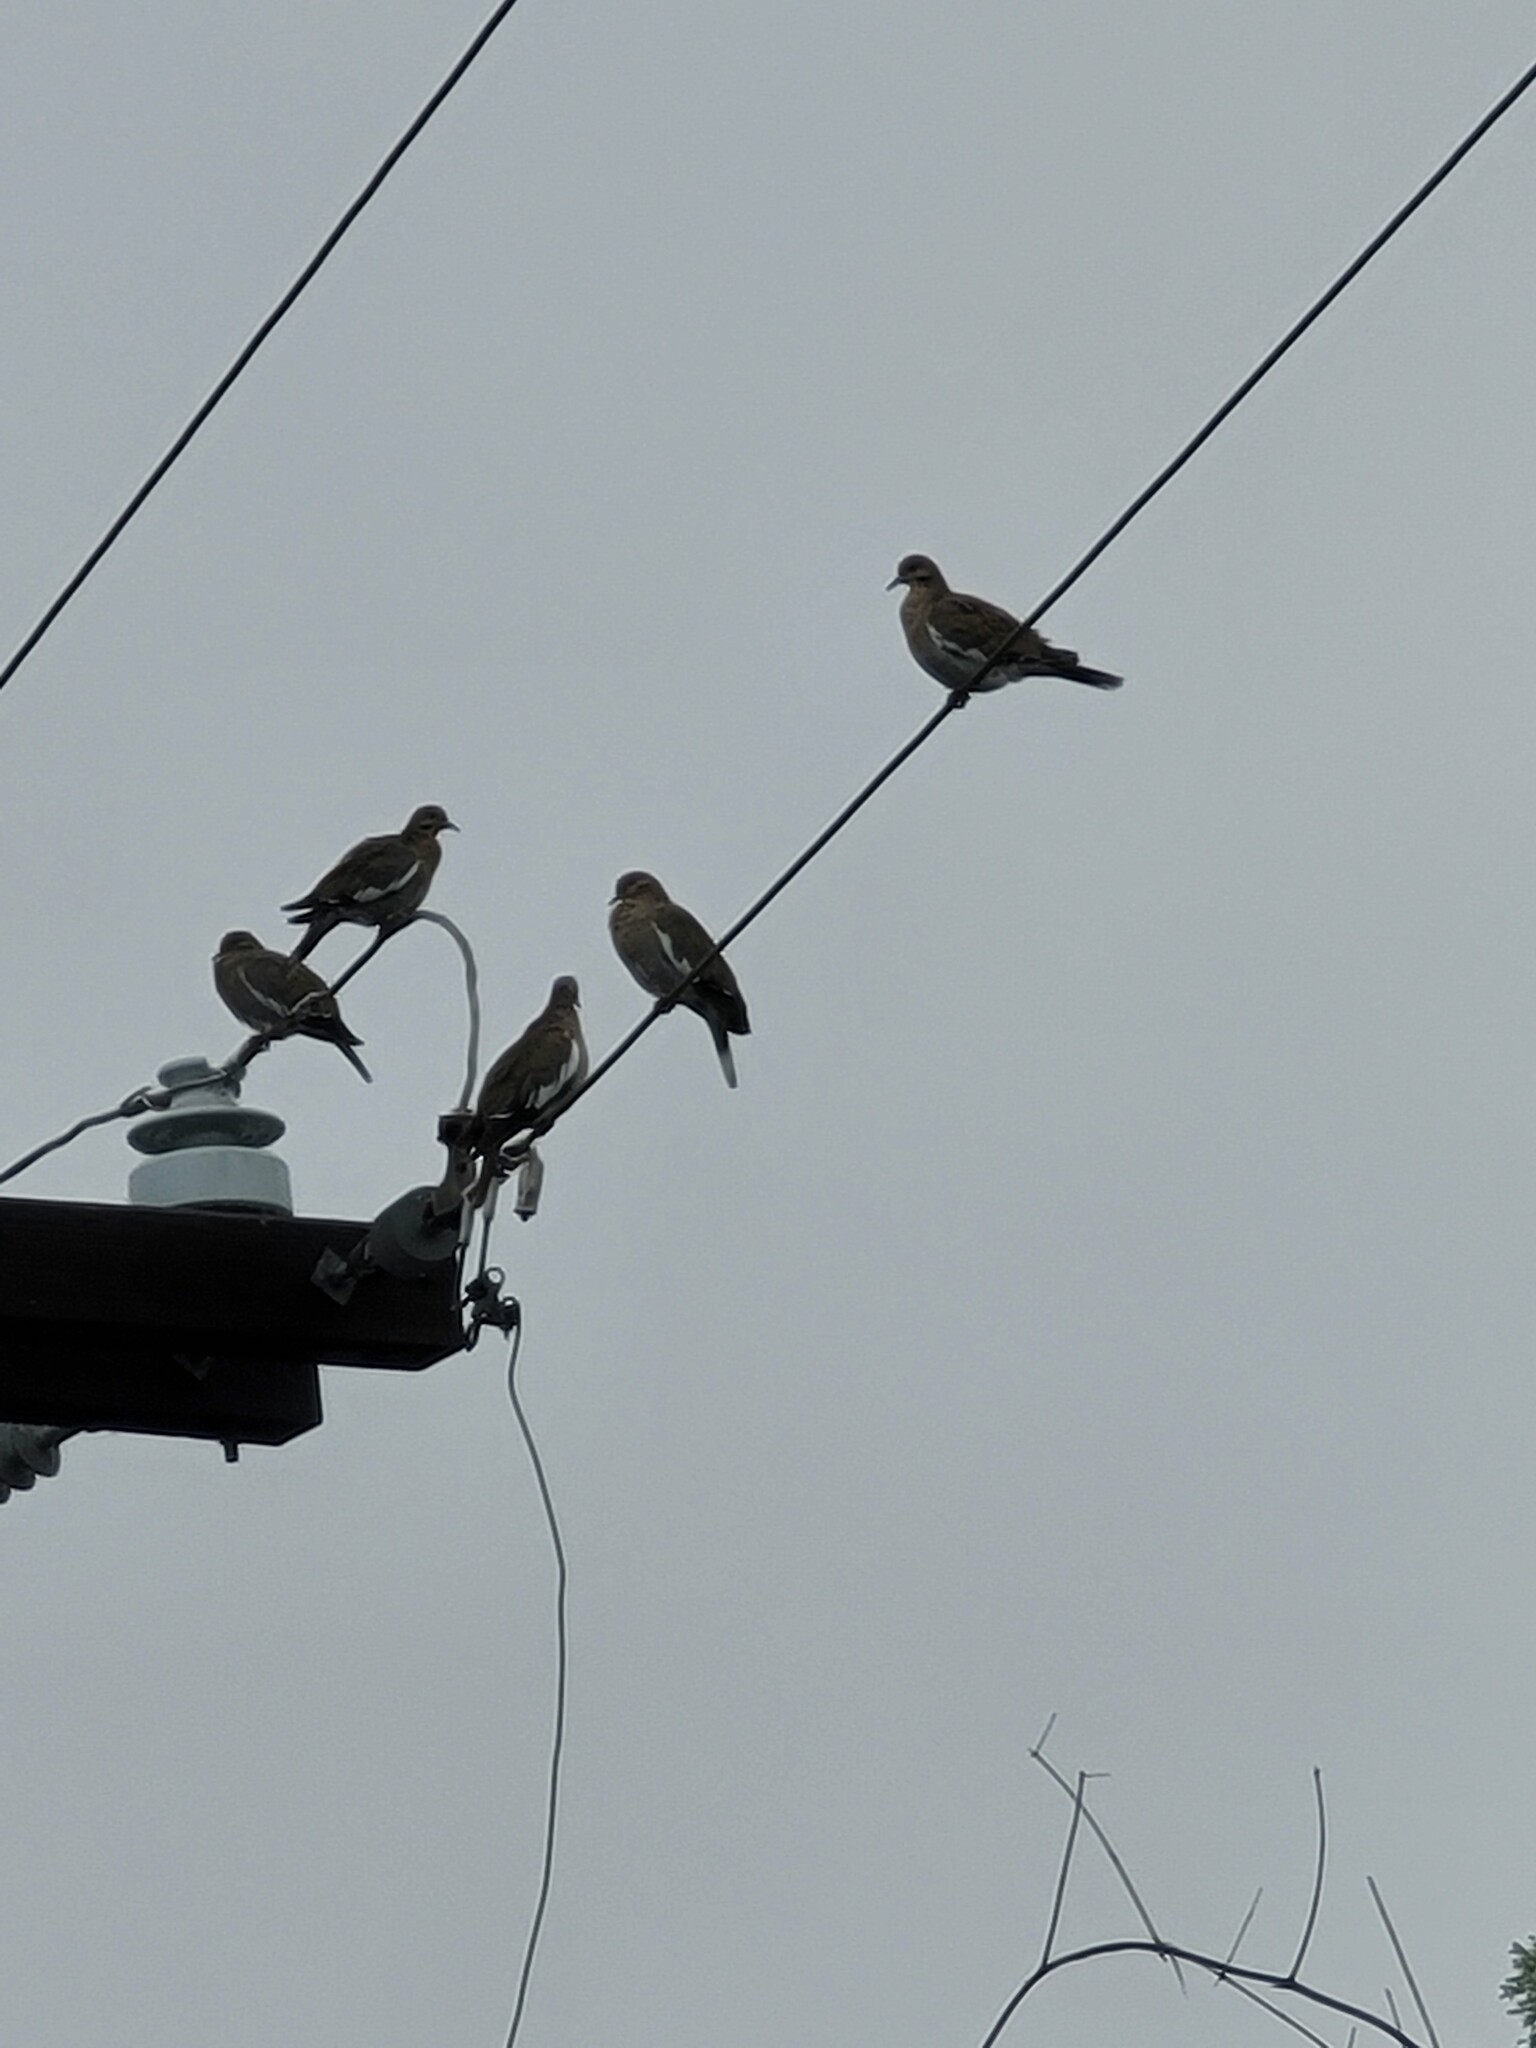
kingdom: Animalia
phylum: Chordata
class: Aves
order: Columbiformes
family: Columbidae
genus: Zenaida
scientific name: Zenaida asiatica
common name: White-winged dove
